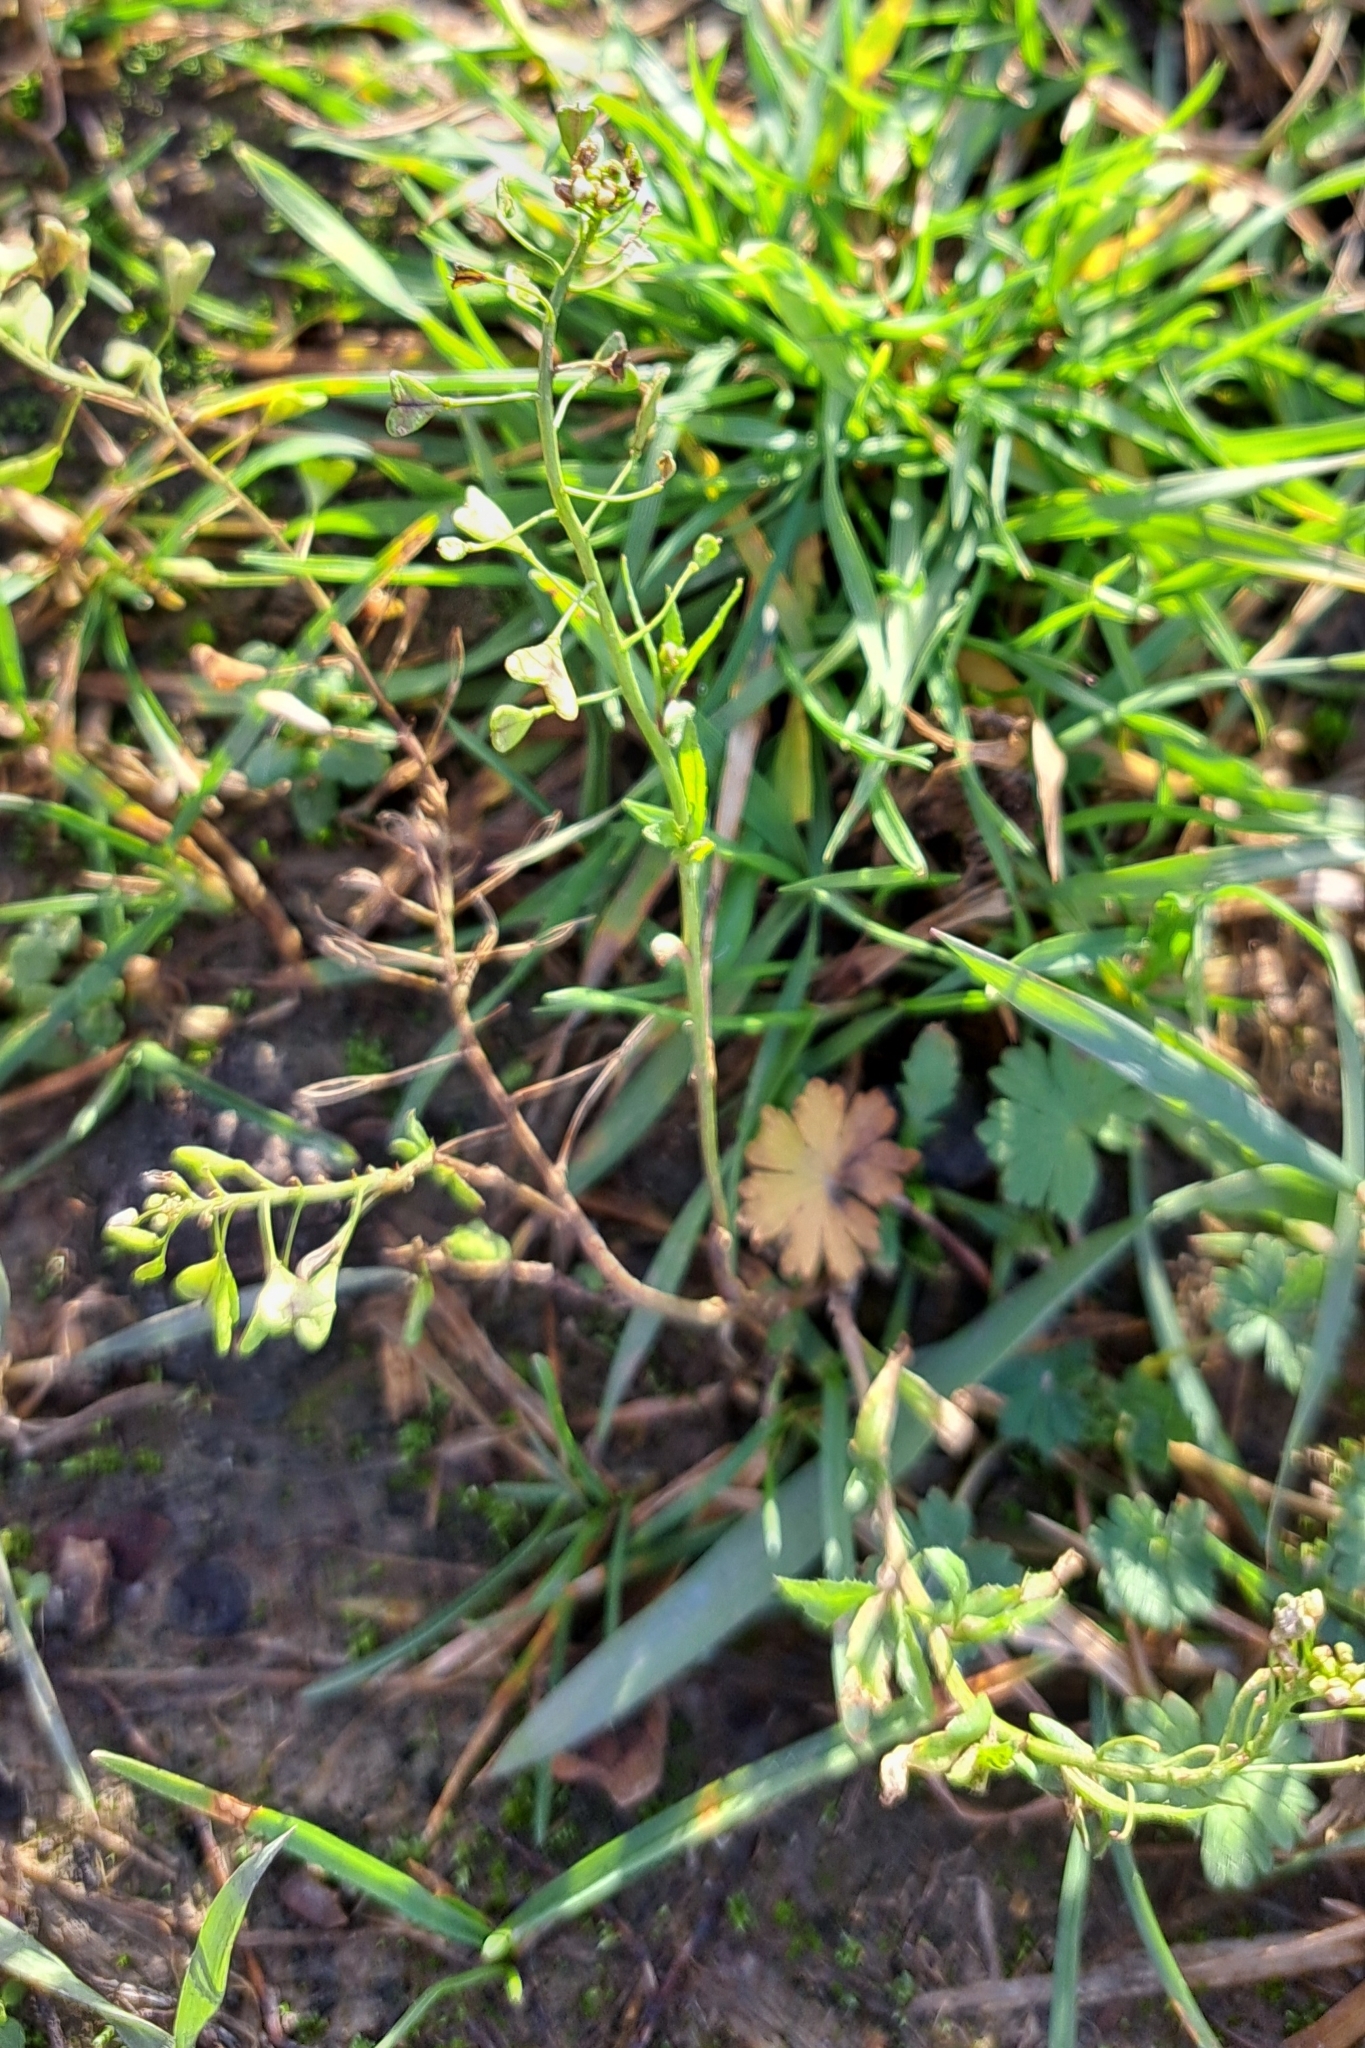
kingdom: Plantae
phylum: Tracheophyta
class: Magnoliopsida
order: Brassicales
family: Brassicaceae
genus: Capsella
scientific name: Capsella bursa-pastoris
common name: Shepherd's purse
